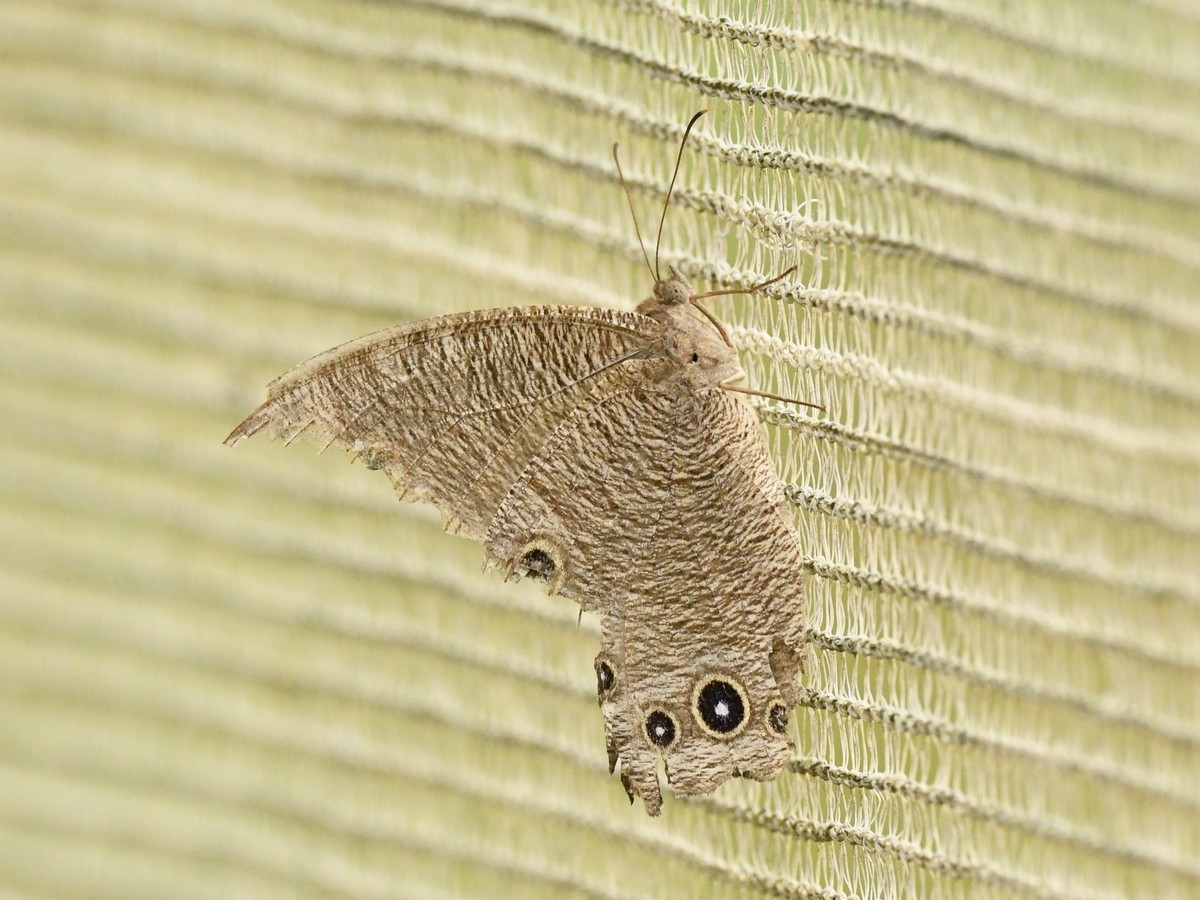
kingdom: Animalia
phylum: Arthropoda
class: Insecta
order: Lepidoptera
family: Nymphalidae
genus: Melanitis
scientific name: Melanitis leda
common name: Twilight brown
